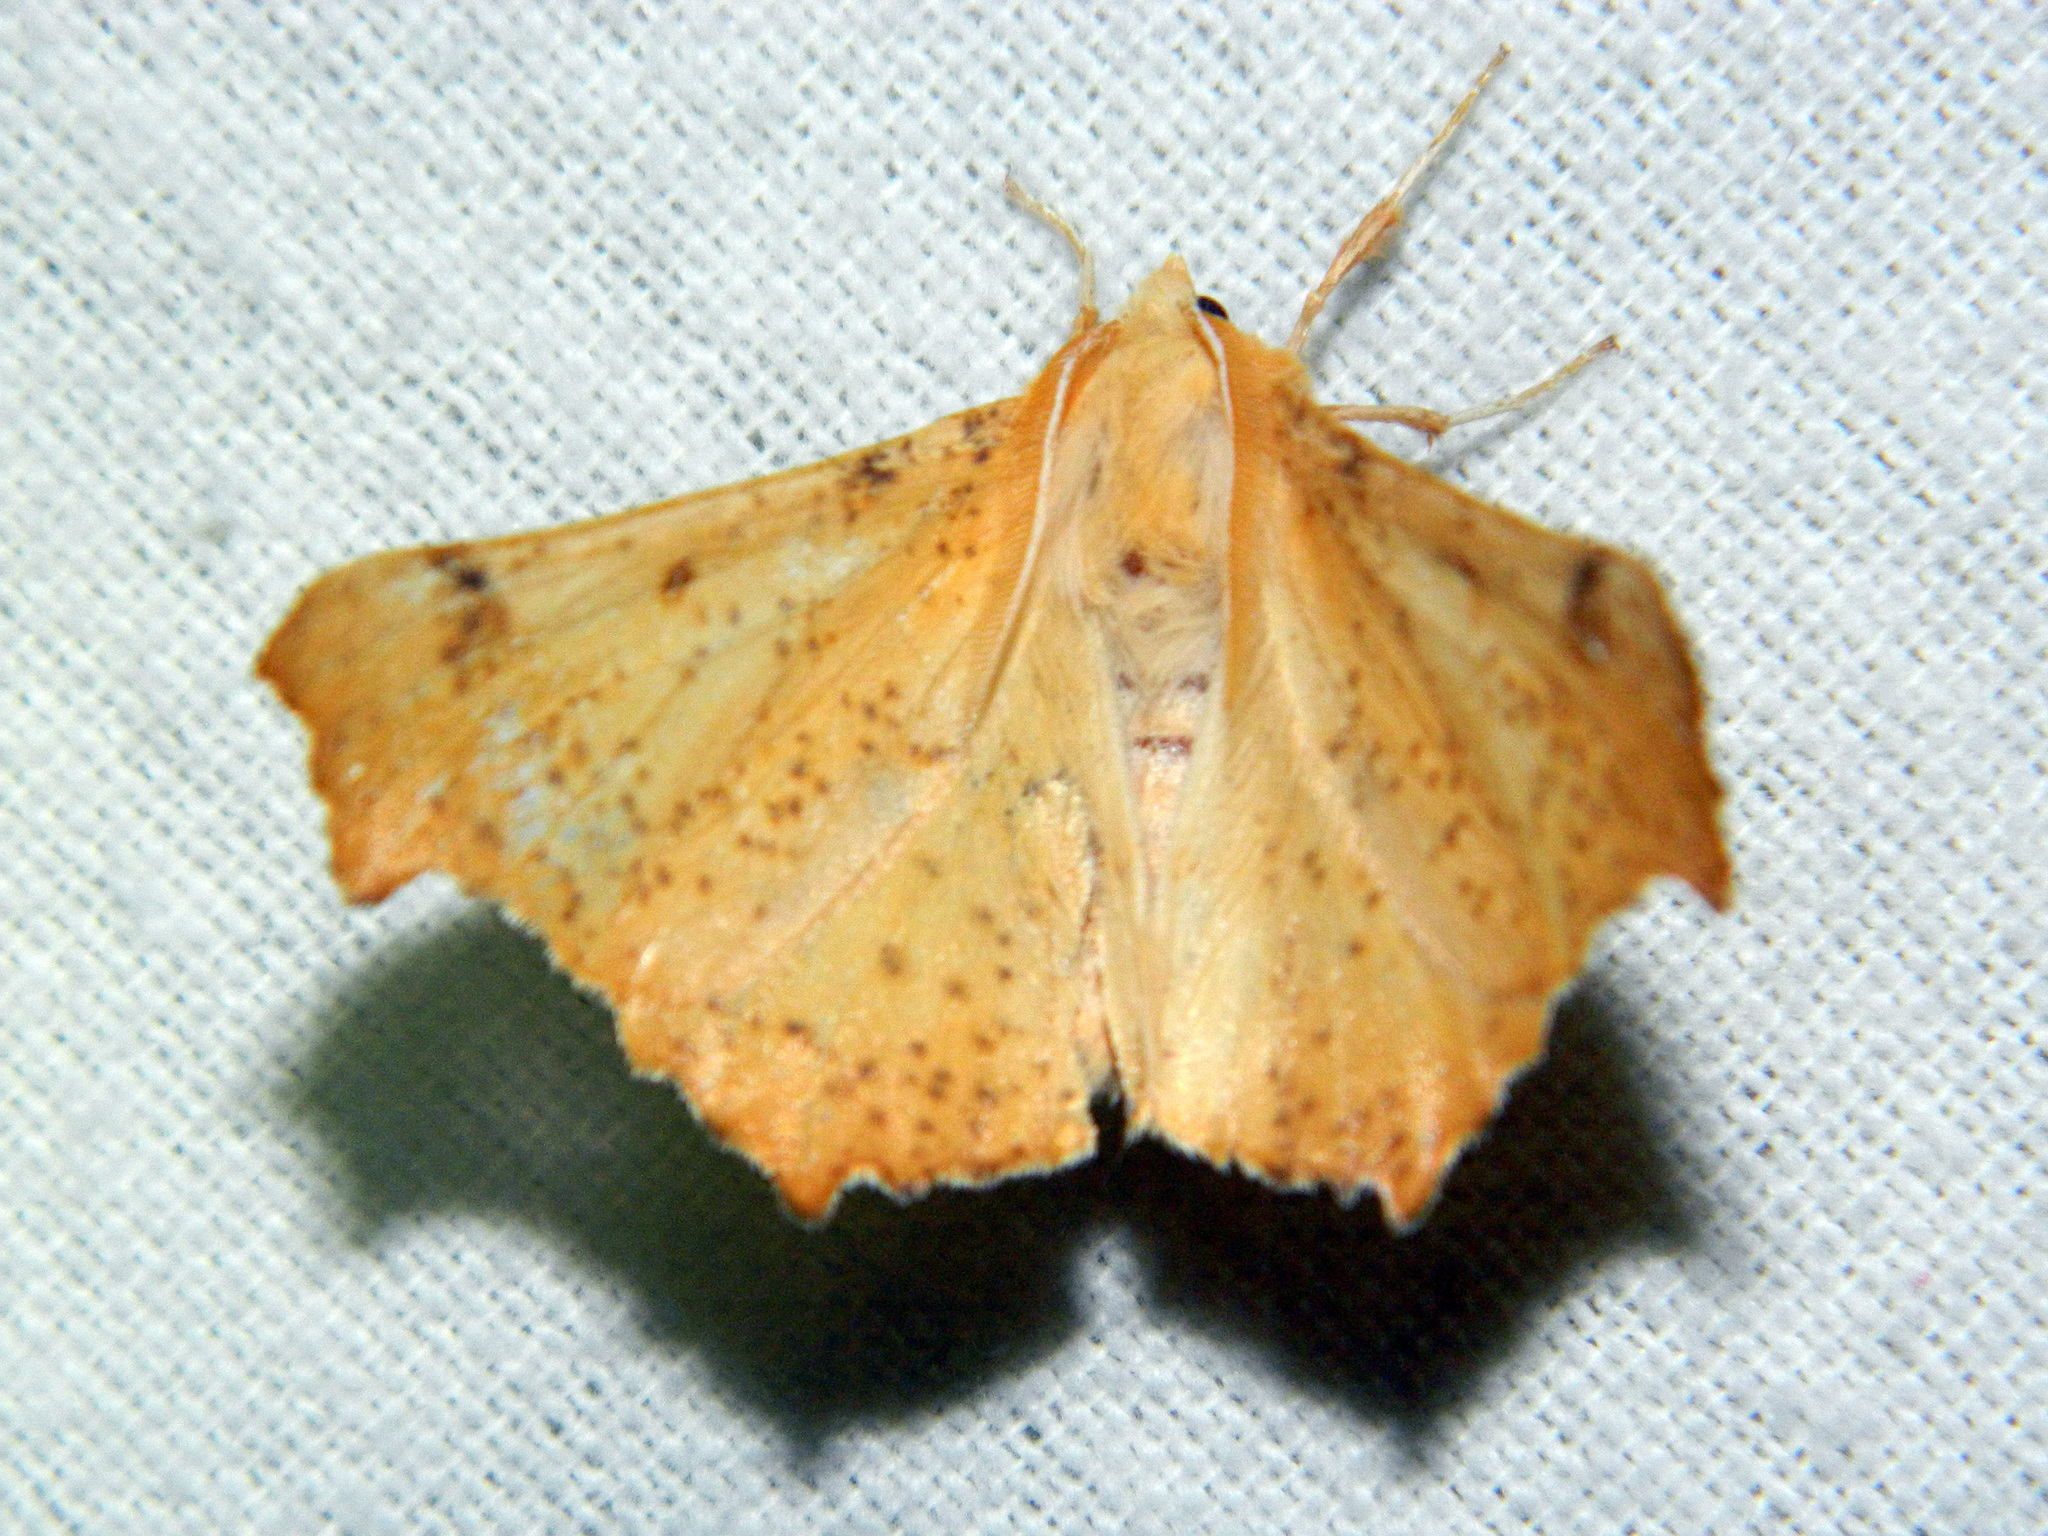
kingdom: Animalia
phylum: Arthropoda
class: Insecta
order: Lepidoptera
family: Geometridae
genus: Ennomos
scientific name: Ennomos magnaria
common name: Maple spanworm
